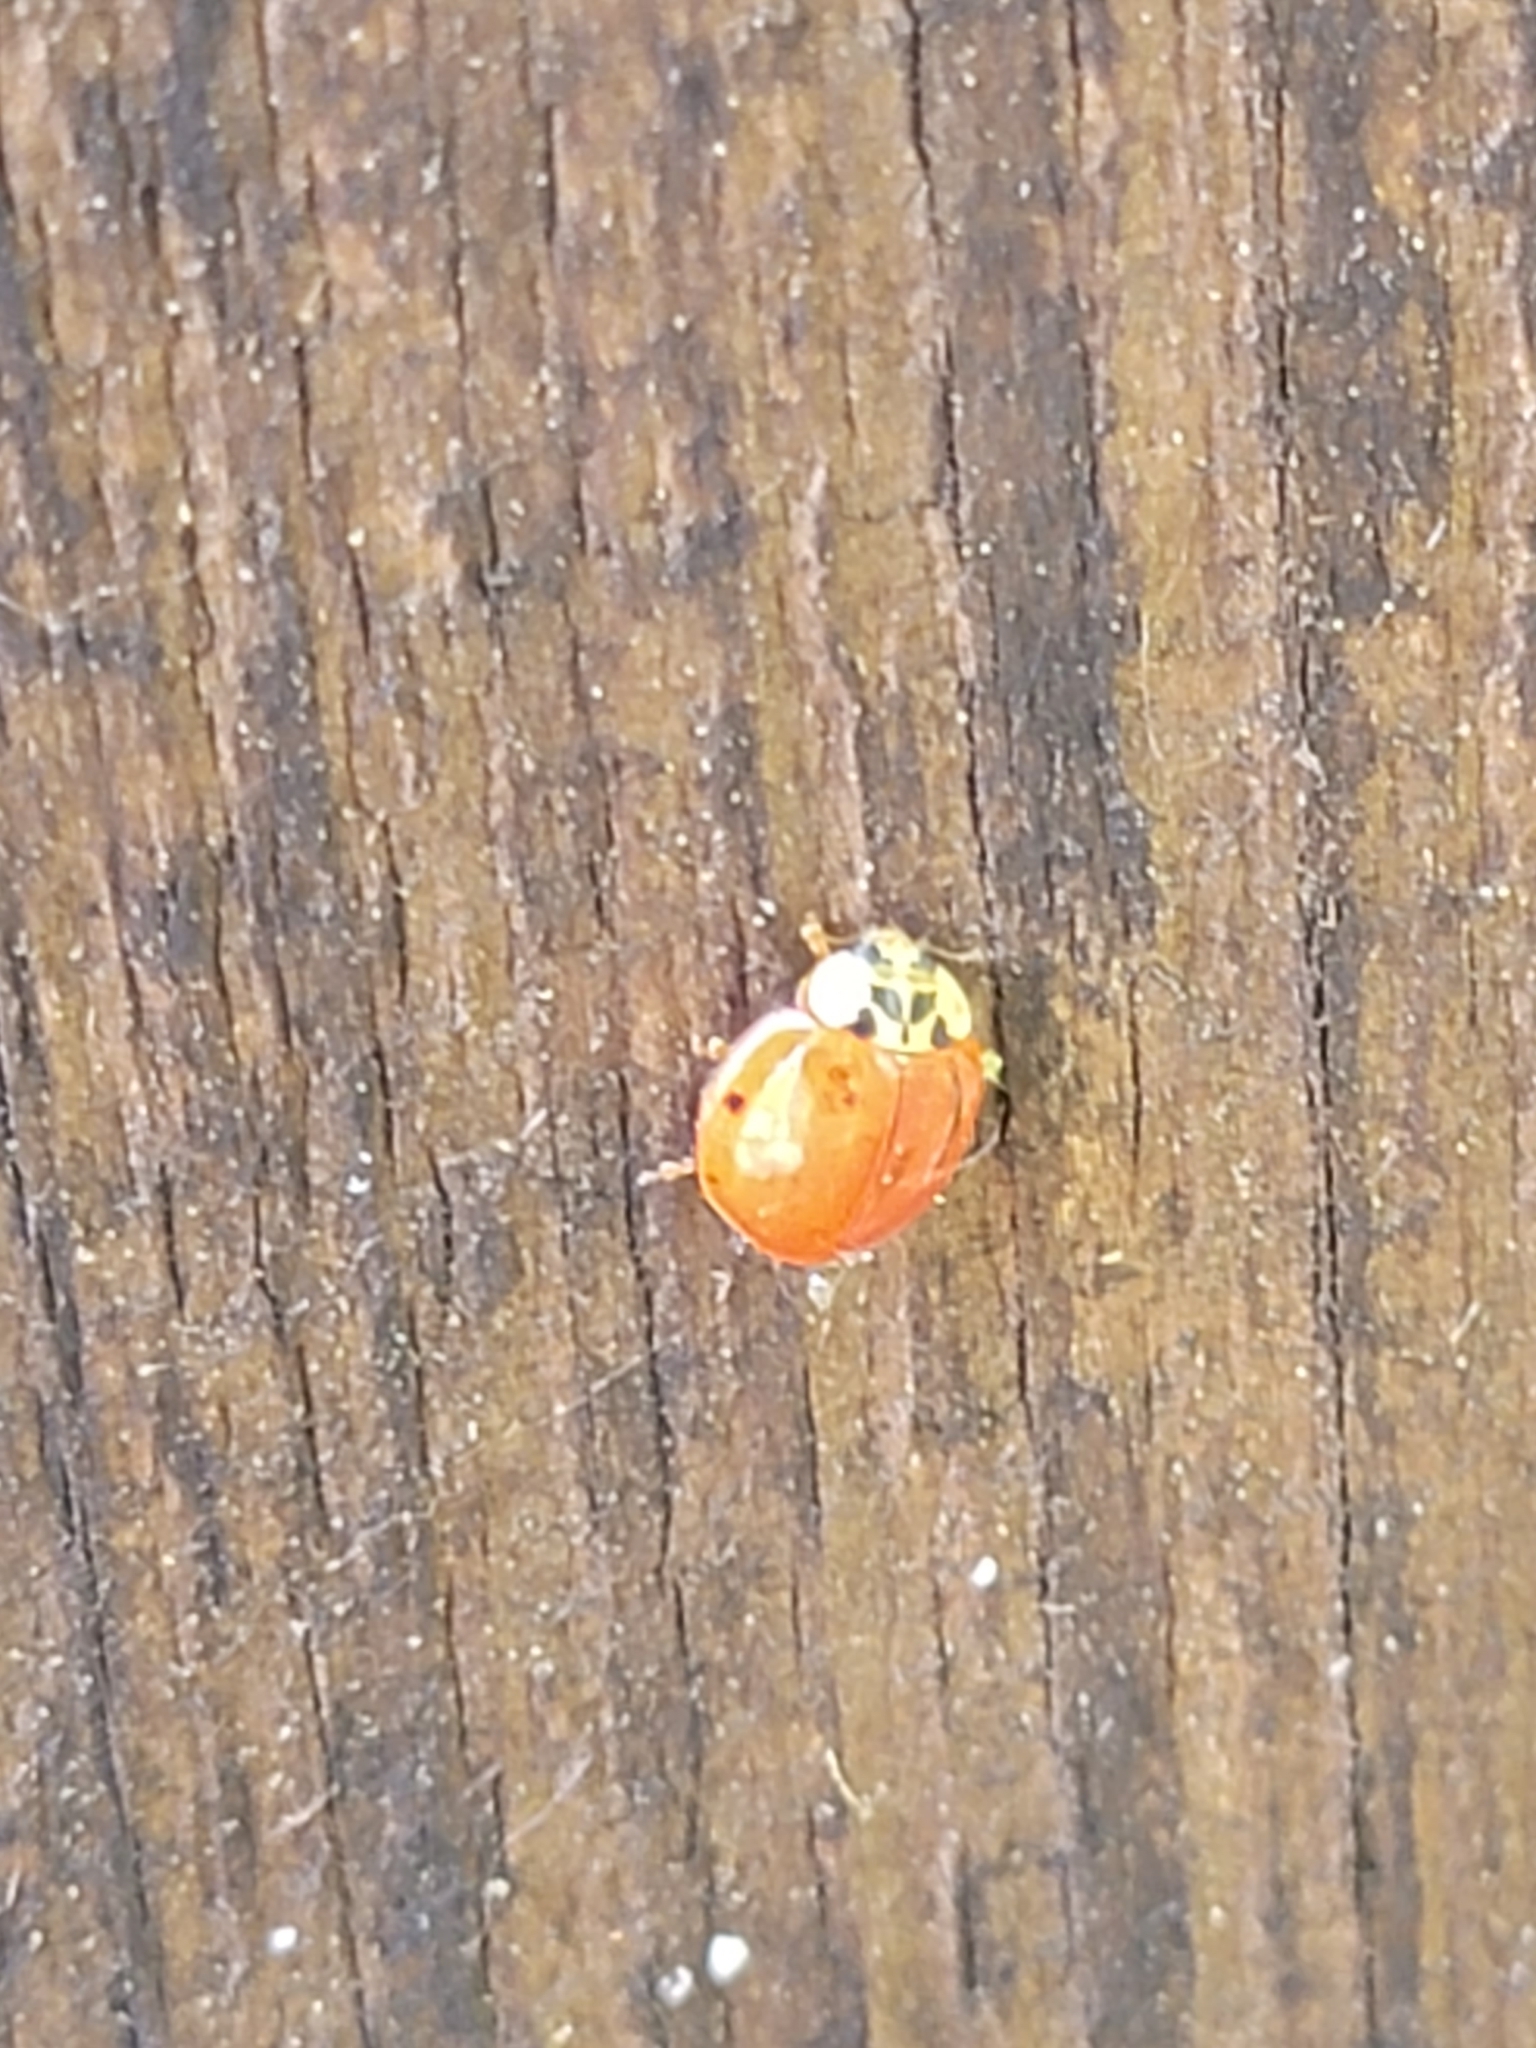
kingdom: Animalia
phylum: Arthropoda
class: Insecta
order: Coleoptera
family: Coccinellidae
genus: Harmonia
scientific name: Harmonia axyridis
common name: Harlequin ladybird
